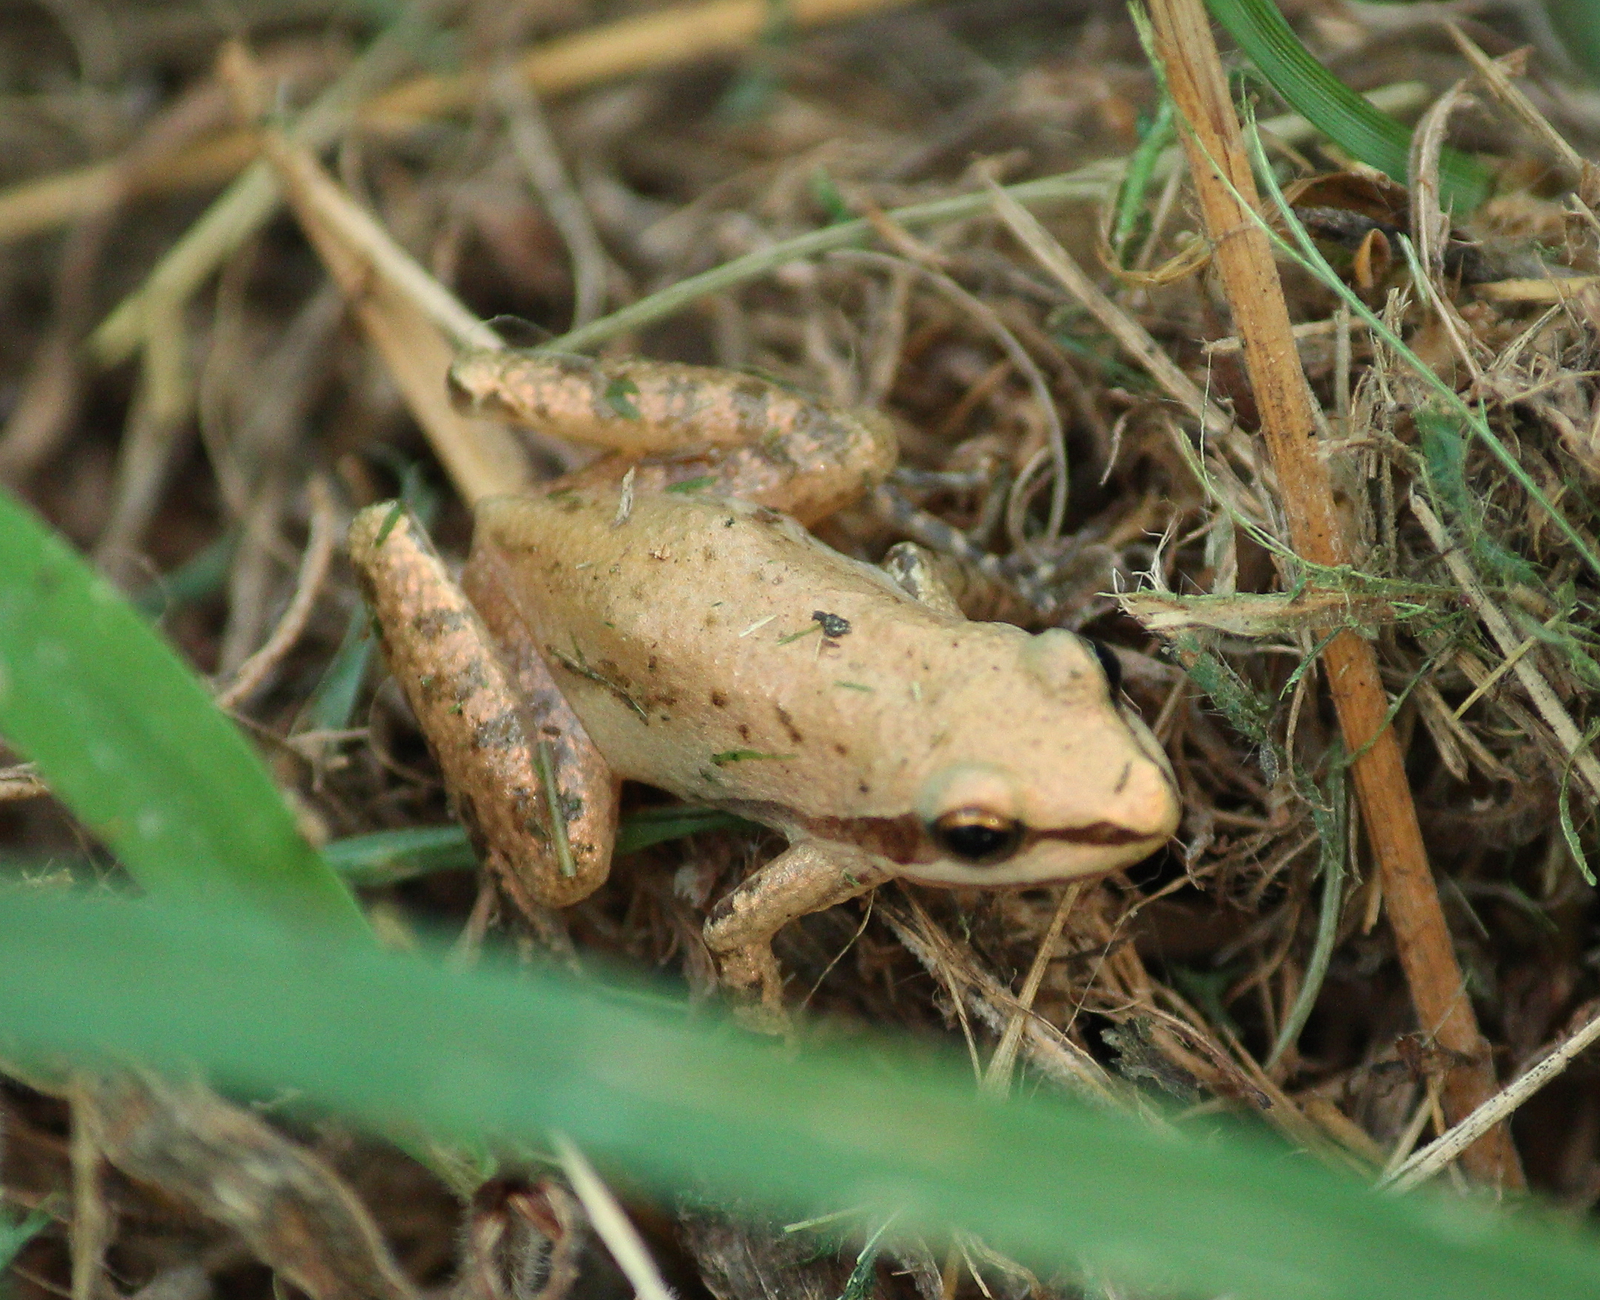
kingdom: Animalia
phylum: Chordata
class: Amphibia
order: Anura
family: Hylidae
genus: Pseudacris
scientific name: Pseudacris fouquettei
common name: Cajun chorus frog
